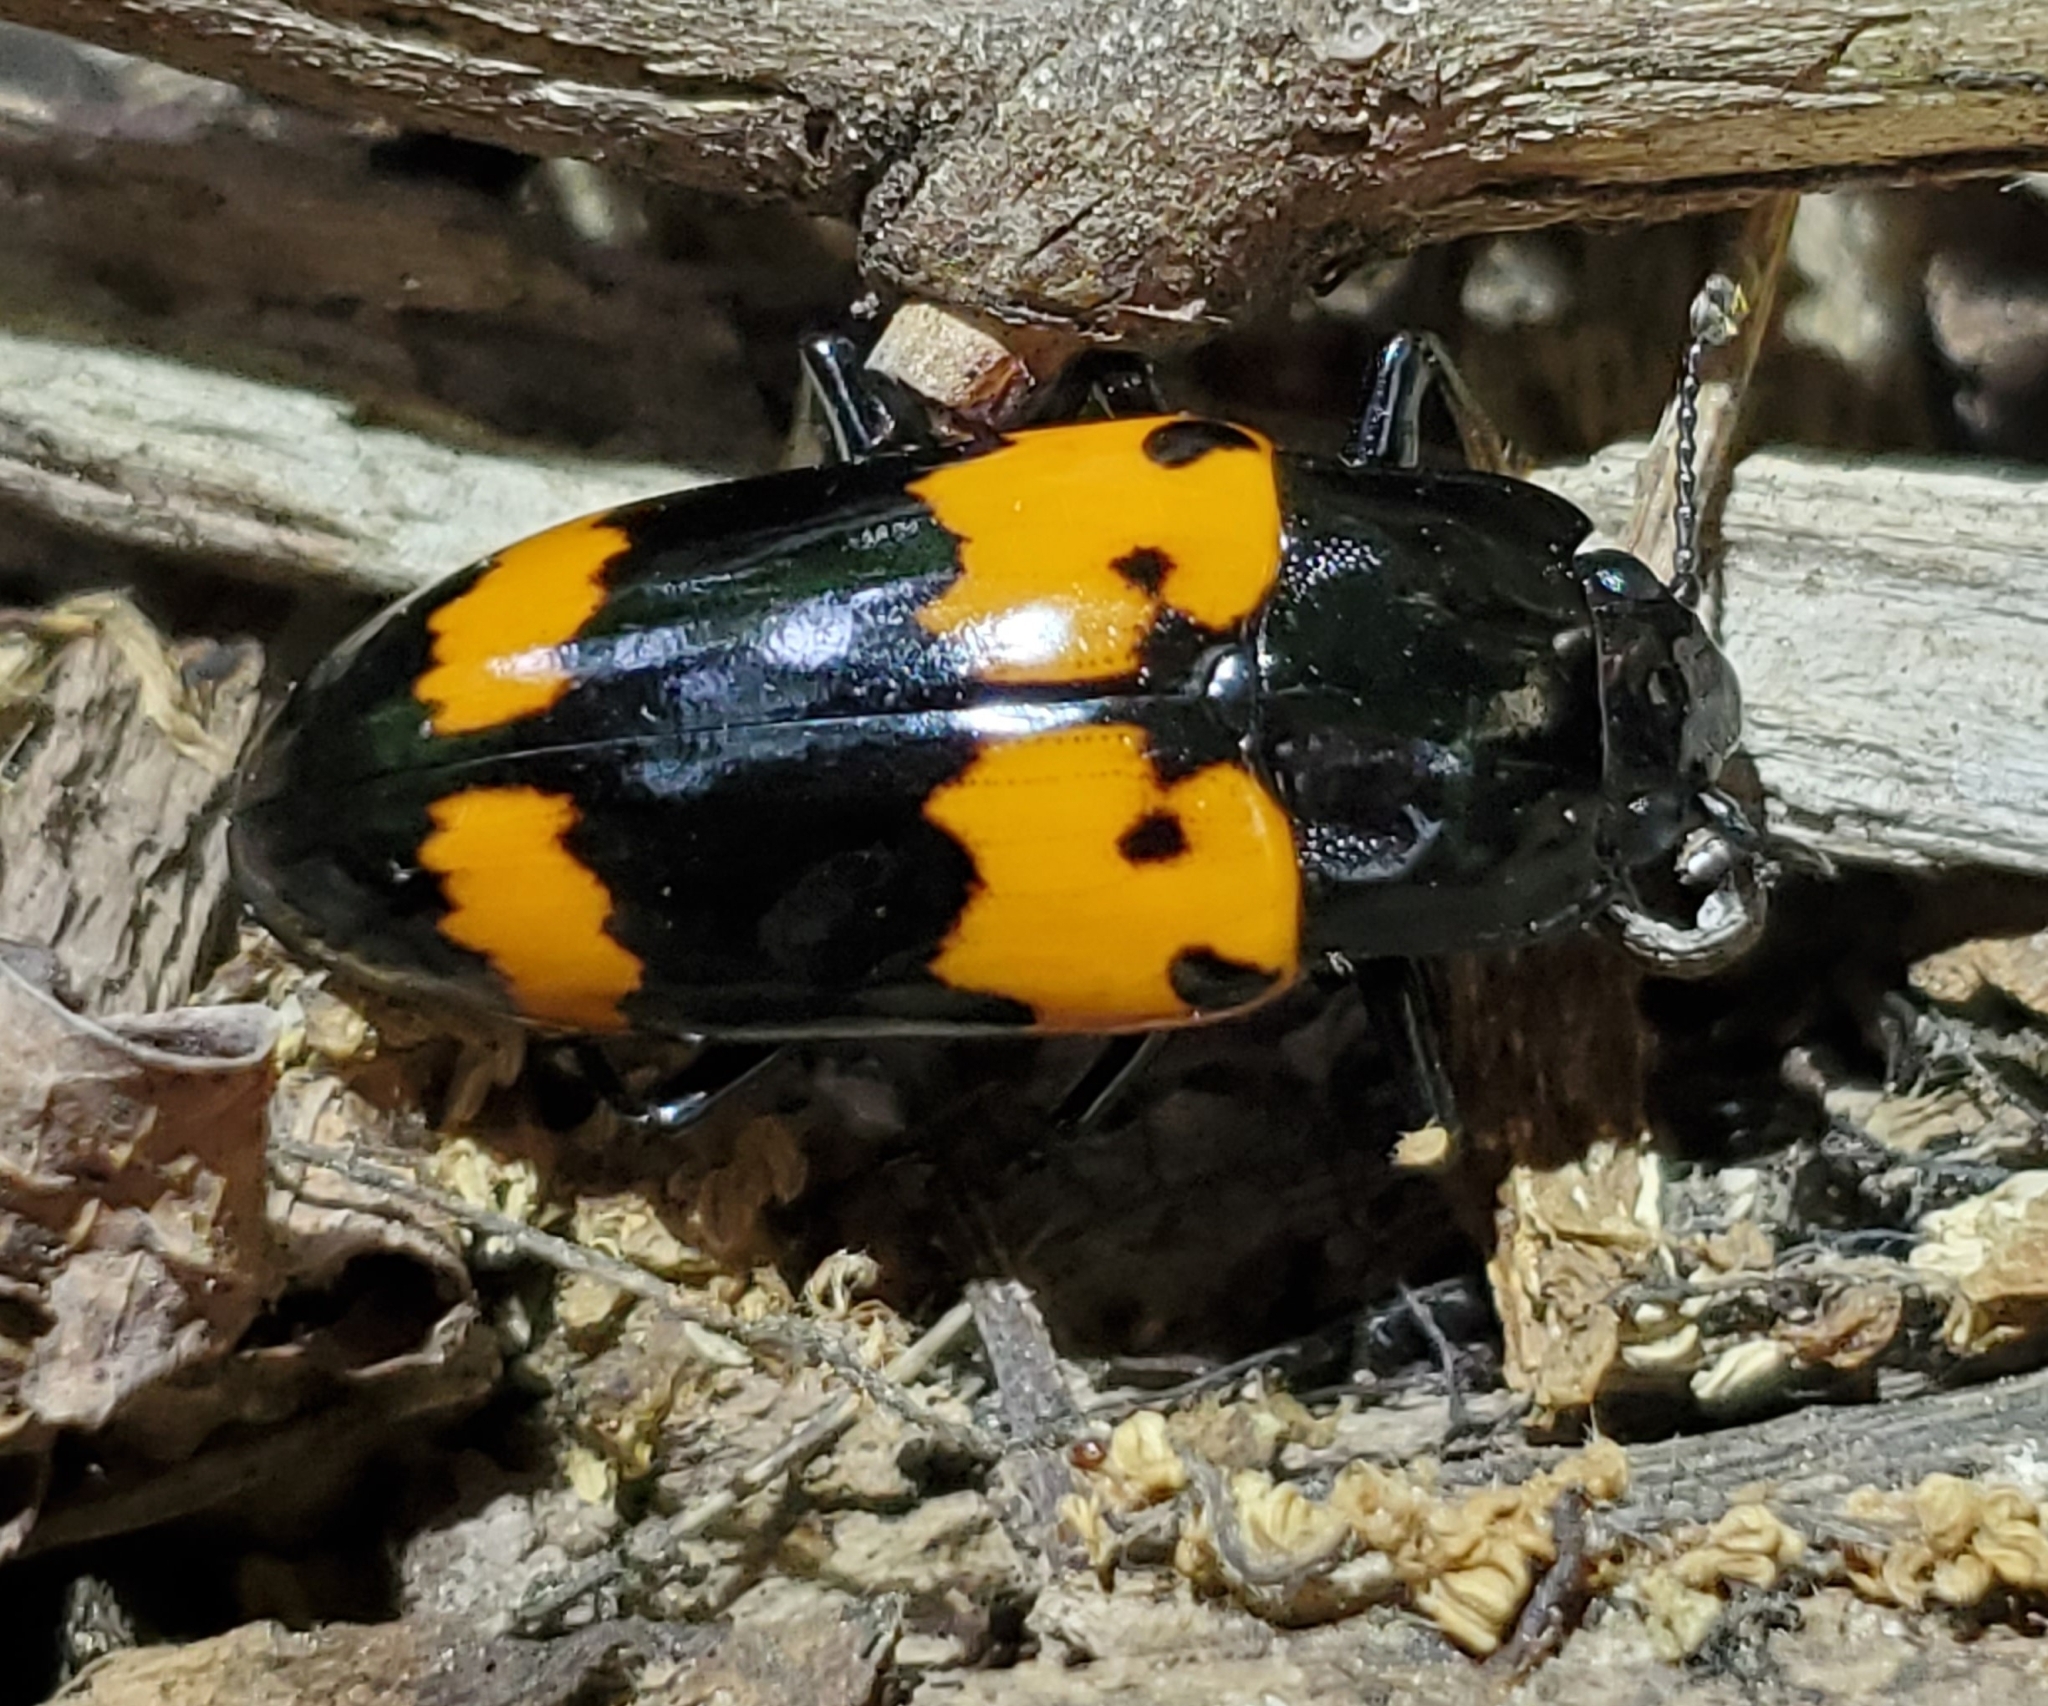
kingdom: Animalia
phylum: Arthropoda
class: Insecta
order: Coleoptera
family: Erotylidae
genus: Megalodacne
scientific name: Megalodacne heros
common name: Pleasing fungus beetle
